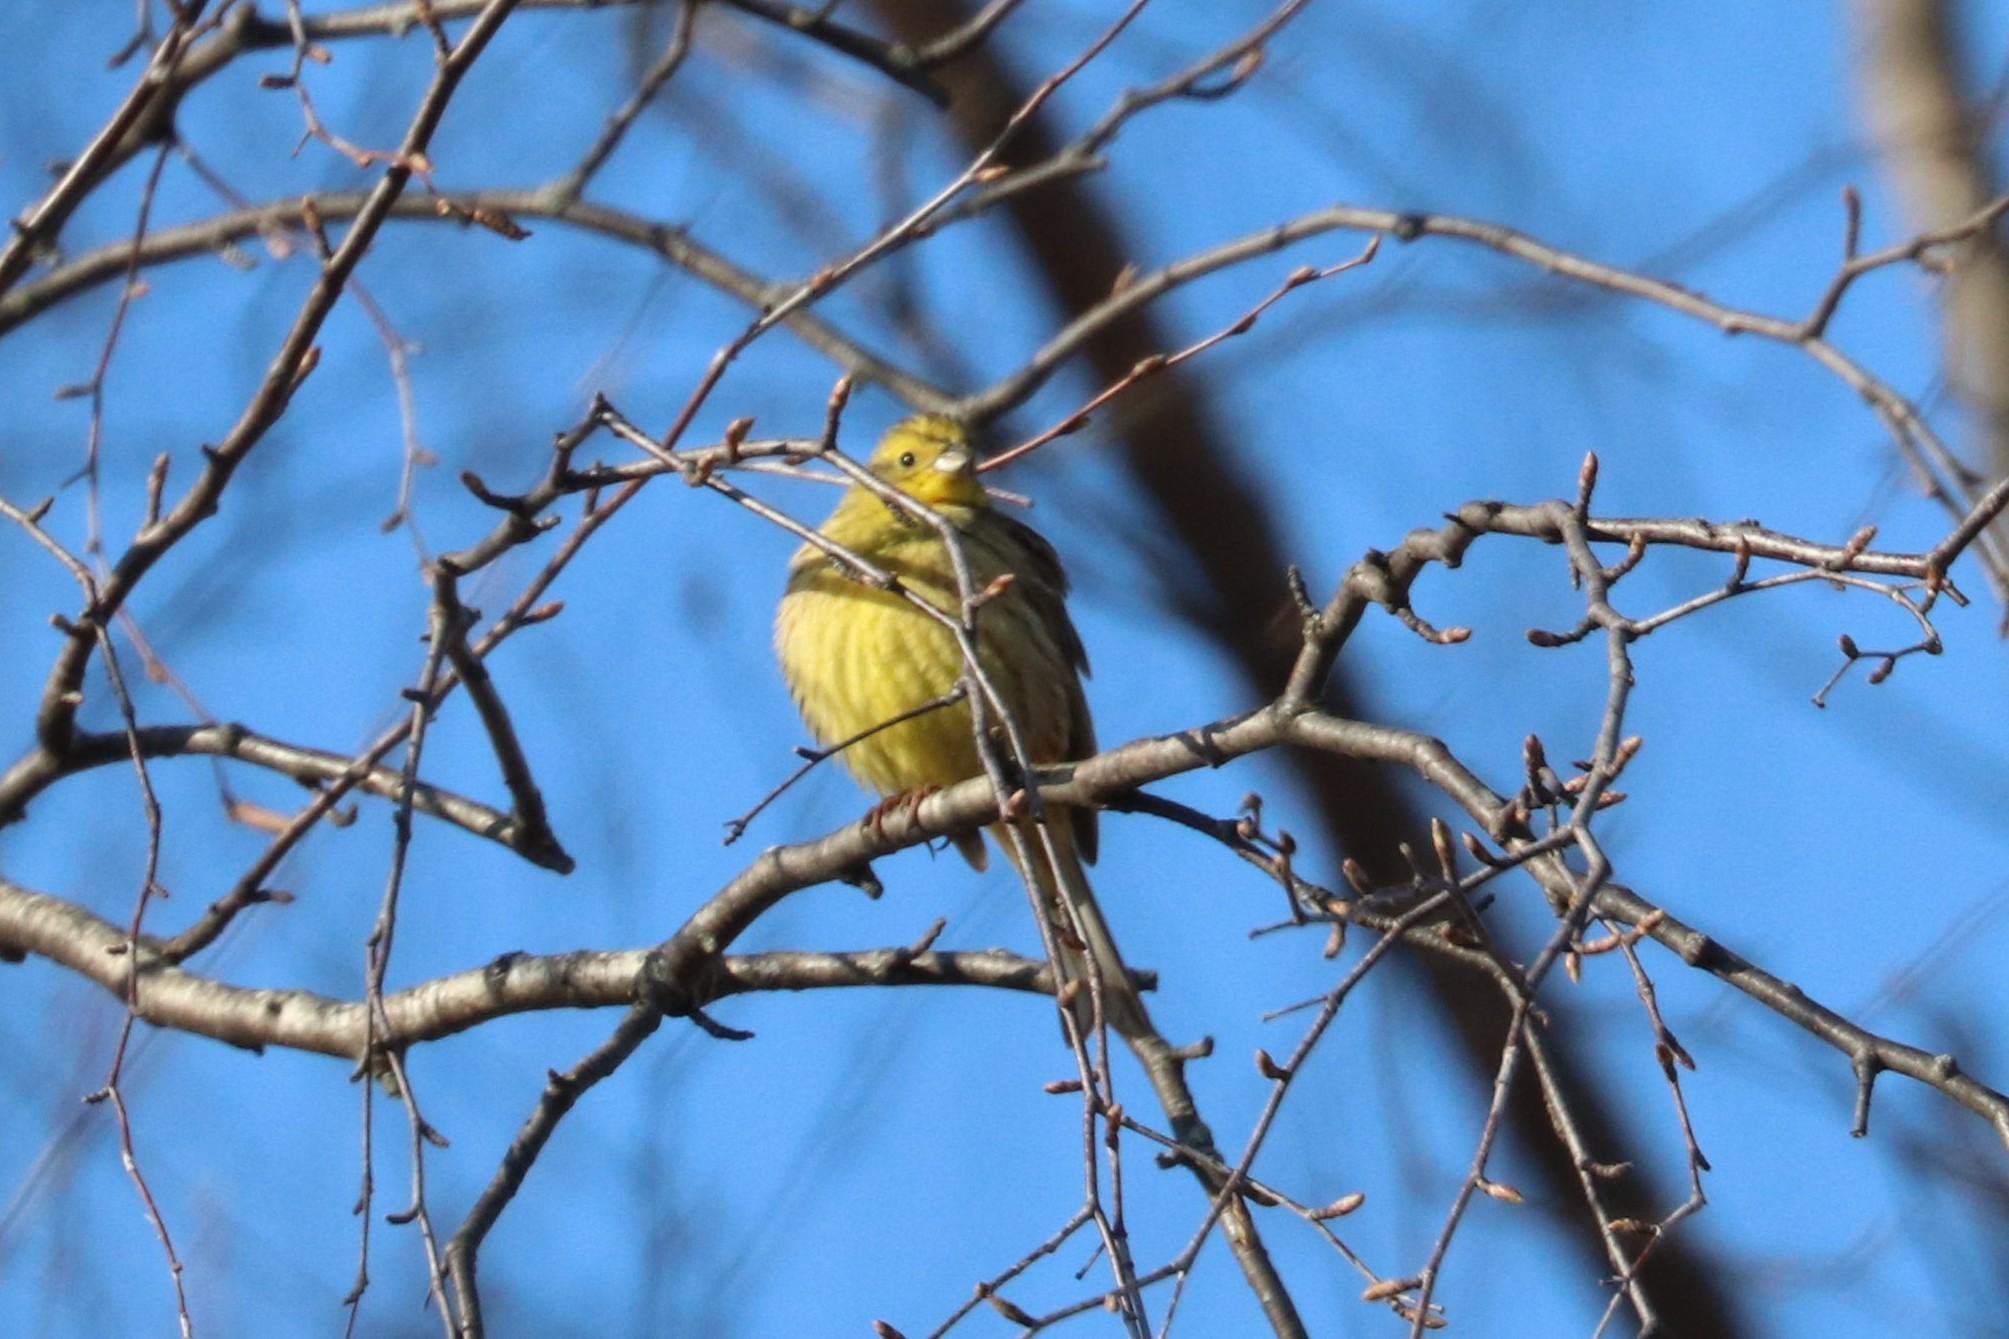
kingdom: Animalia
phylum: Chordata
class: Aves
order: Passeriformes
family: Emberizidae
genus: Emberiza
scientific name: Emberiza citrinella
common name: Yellowhammer
